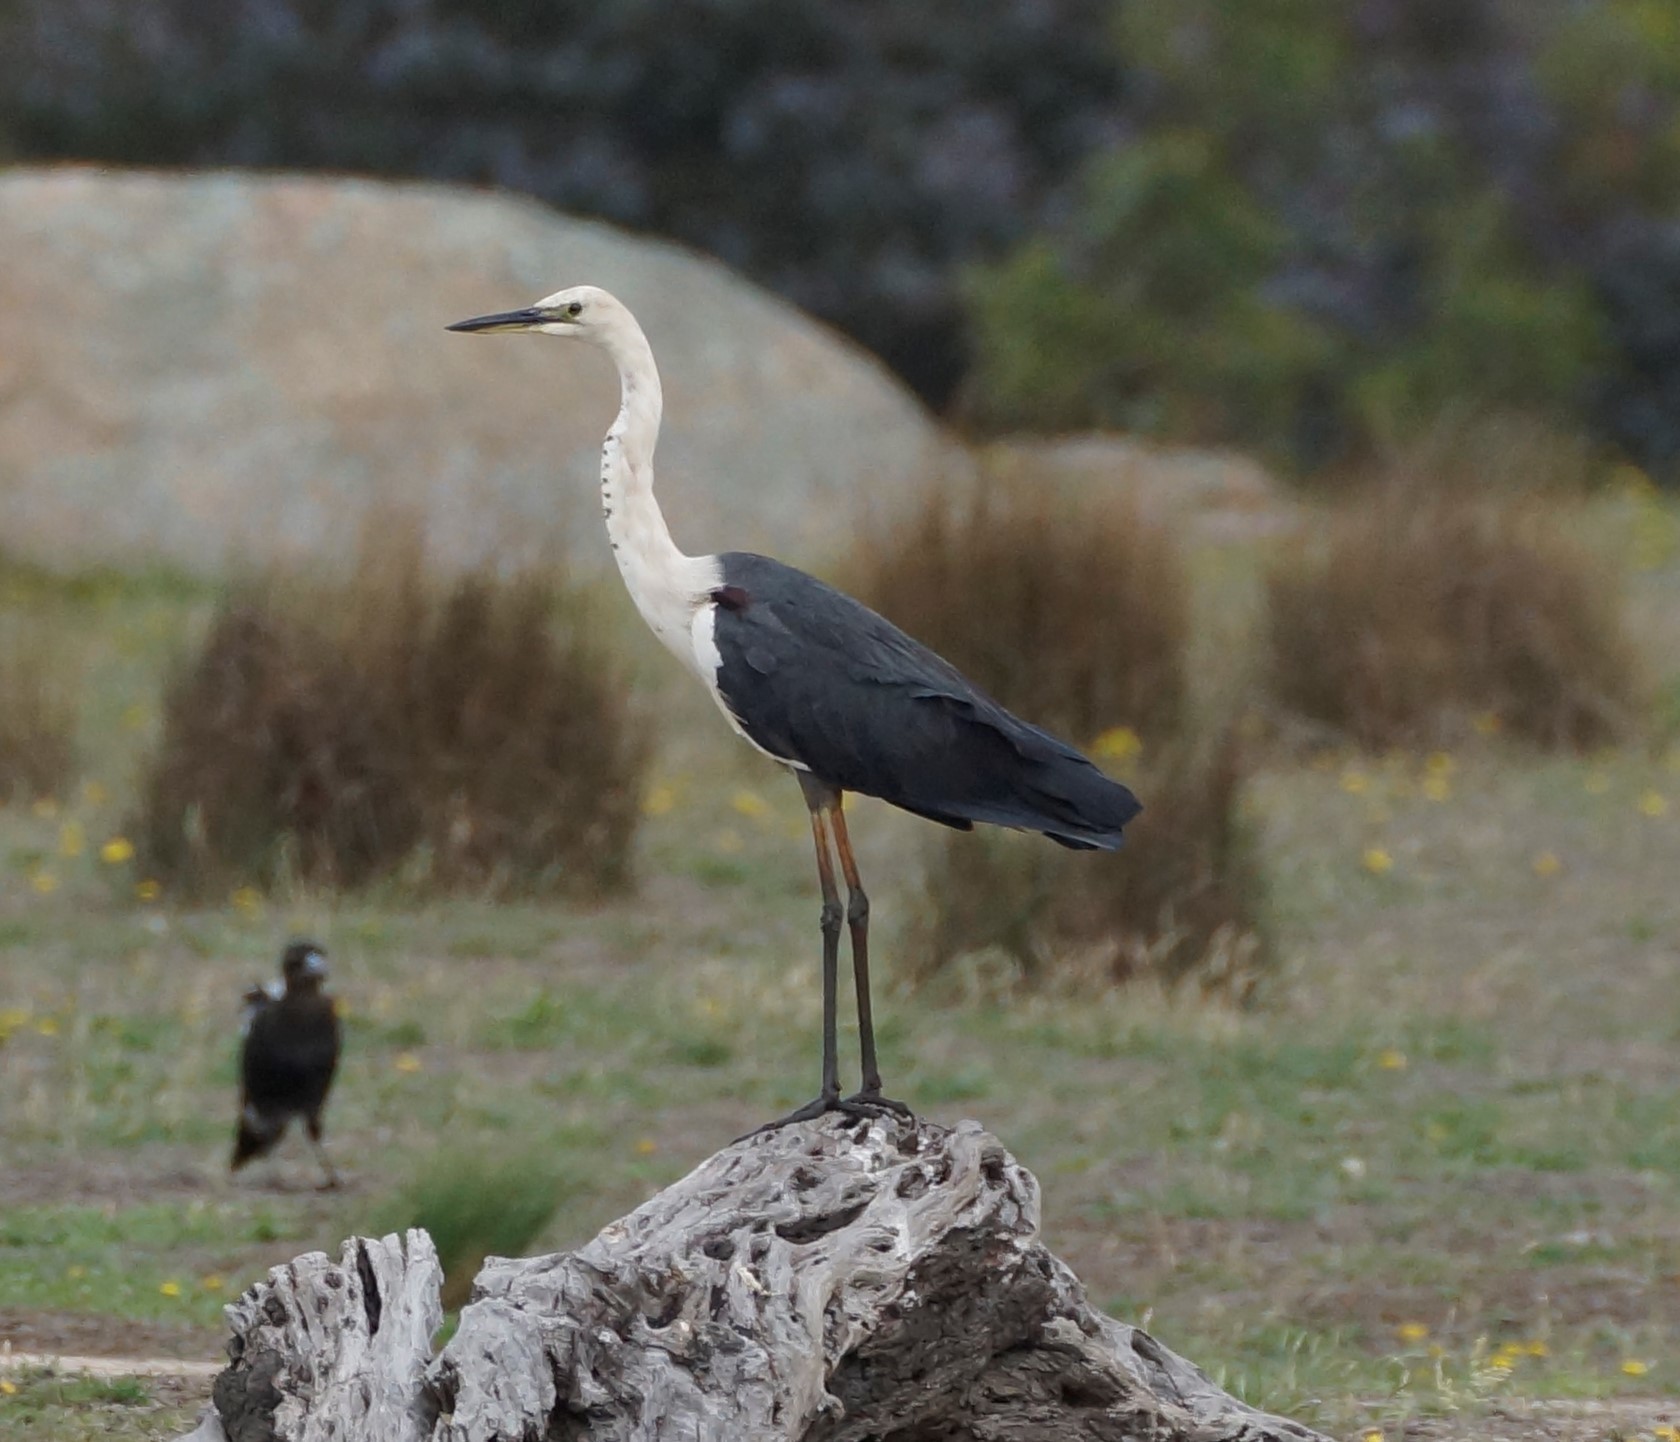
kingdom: Animalia
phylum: Chordata
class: Aves
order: Pelecaniformes
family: Ardeidae
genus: Ardea
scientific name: Ardea pacifica
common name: White-necked heron
